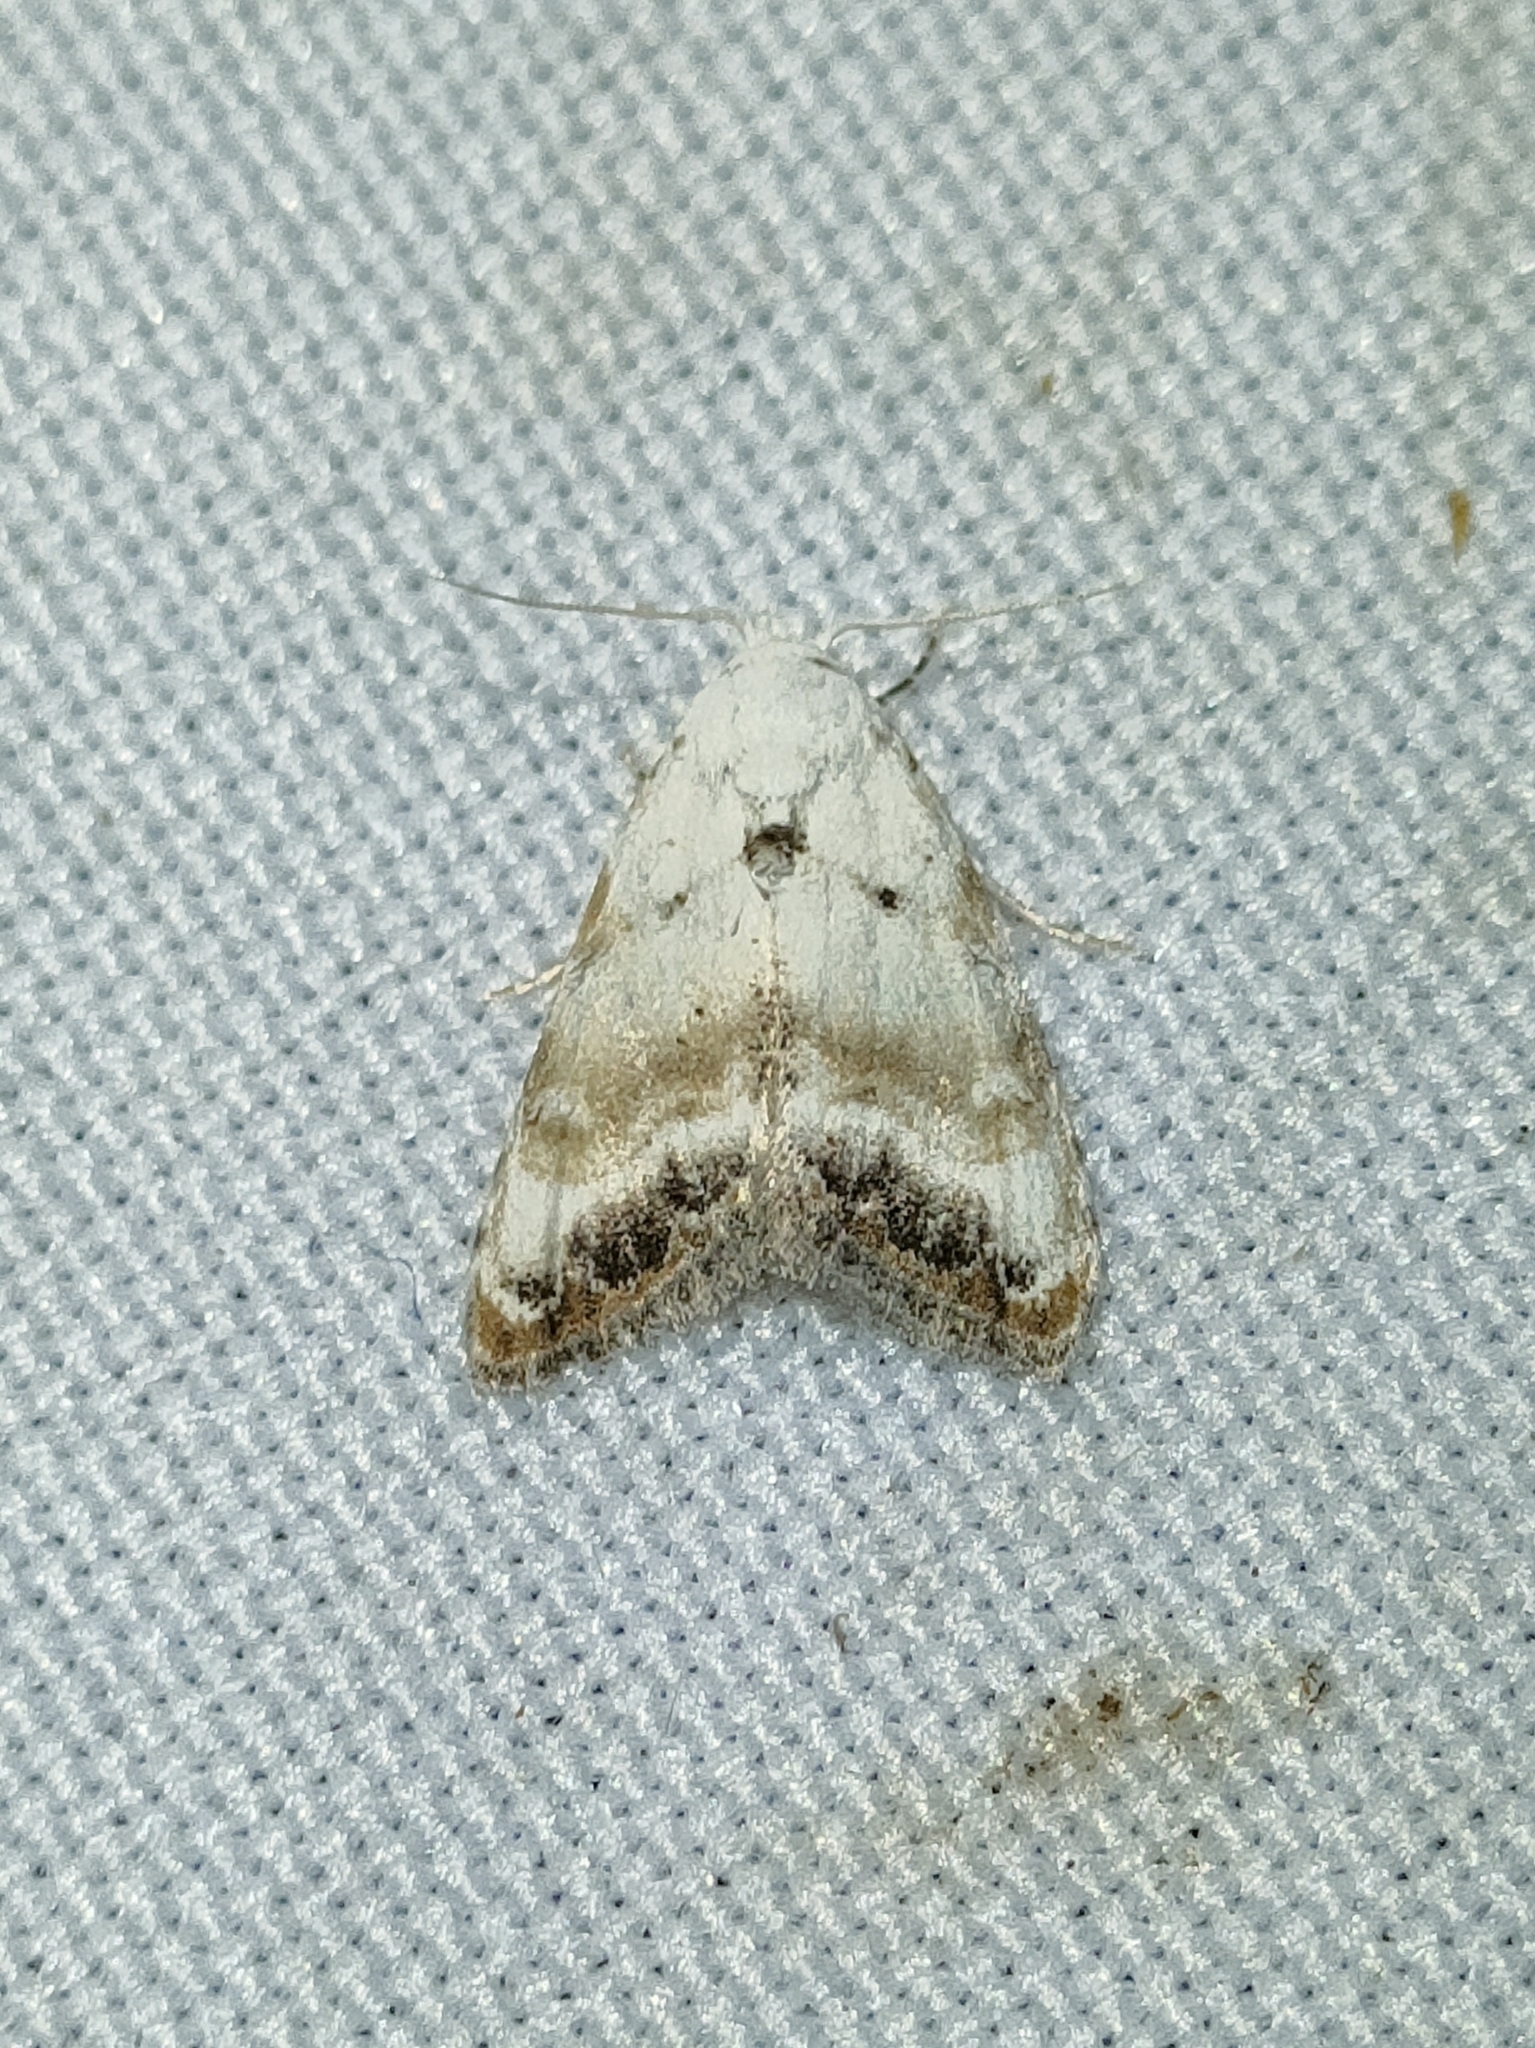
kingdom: Animalia
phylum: Arthropoda
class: Insecta
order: Lepidoptera
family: Nolidae
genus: Nola
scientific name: Nola infantula
